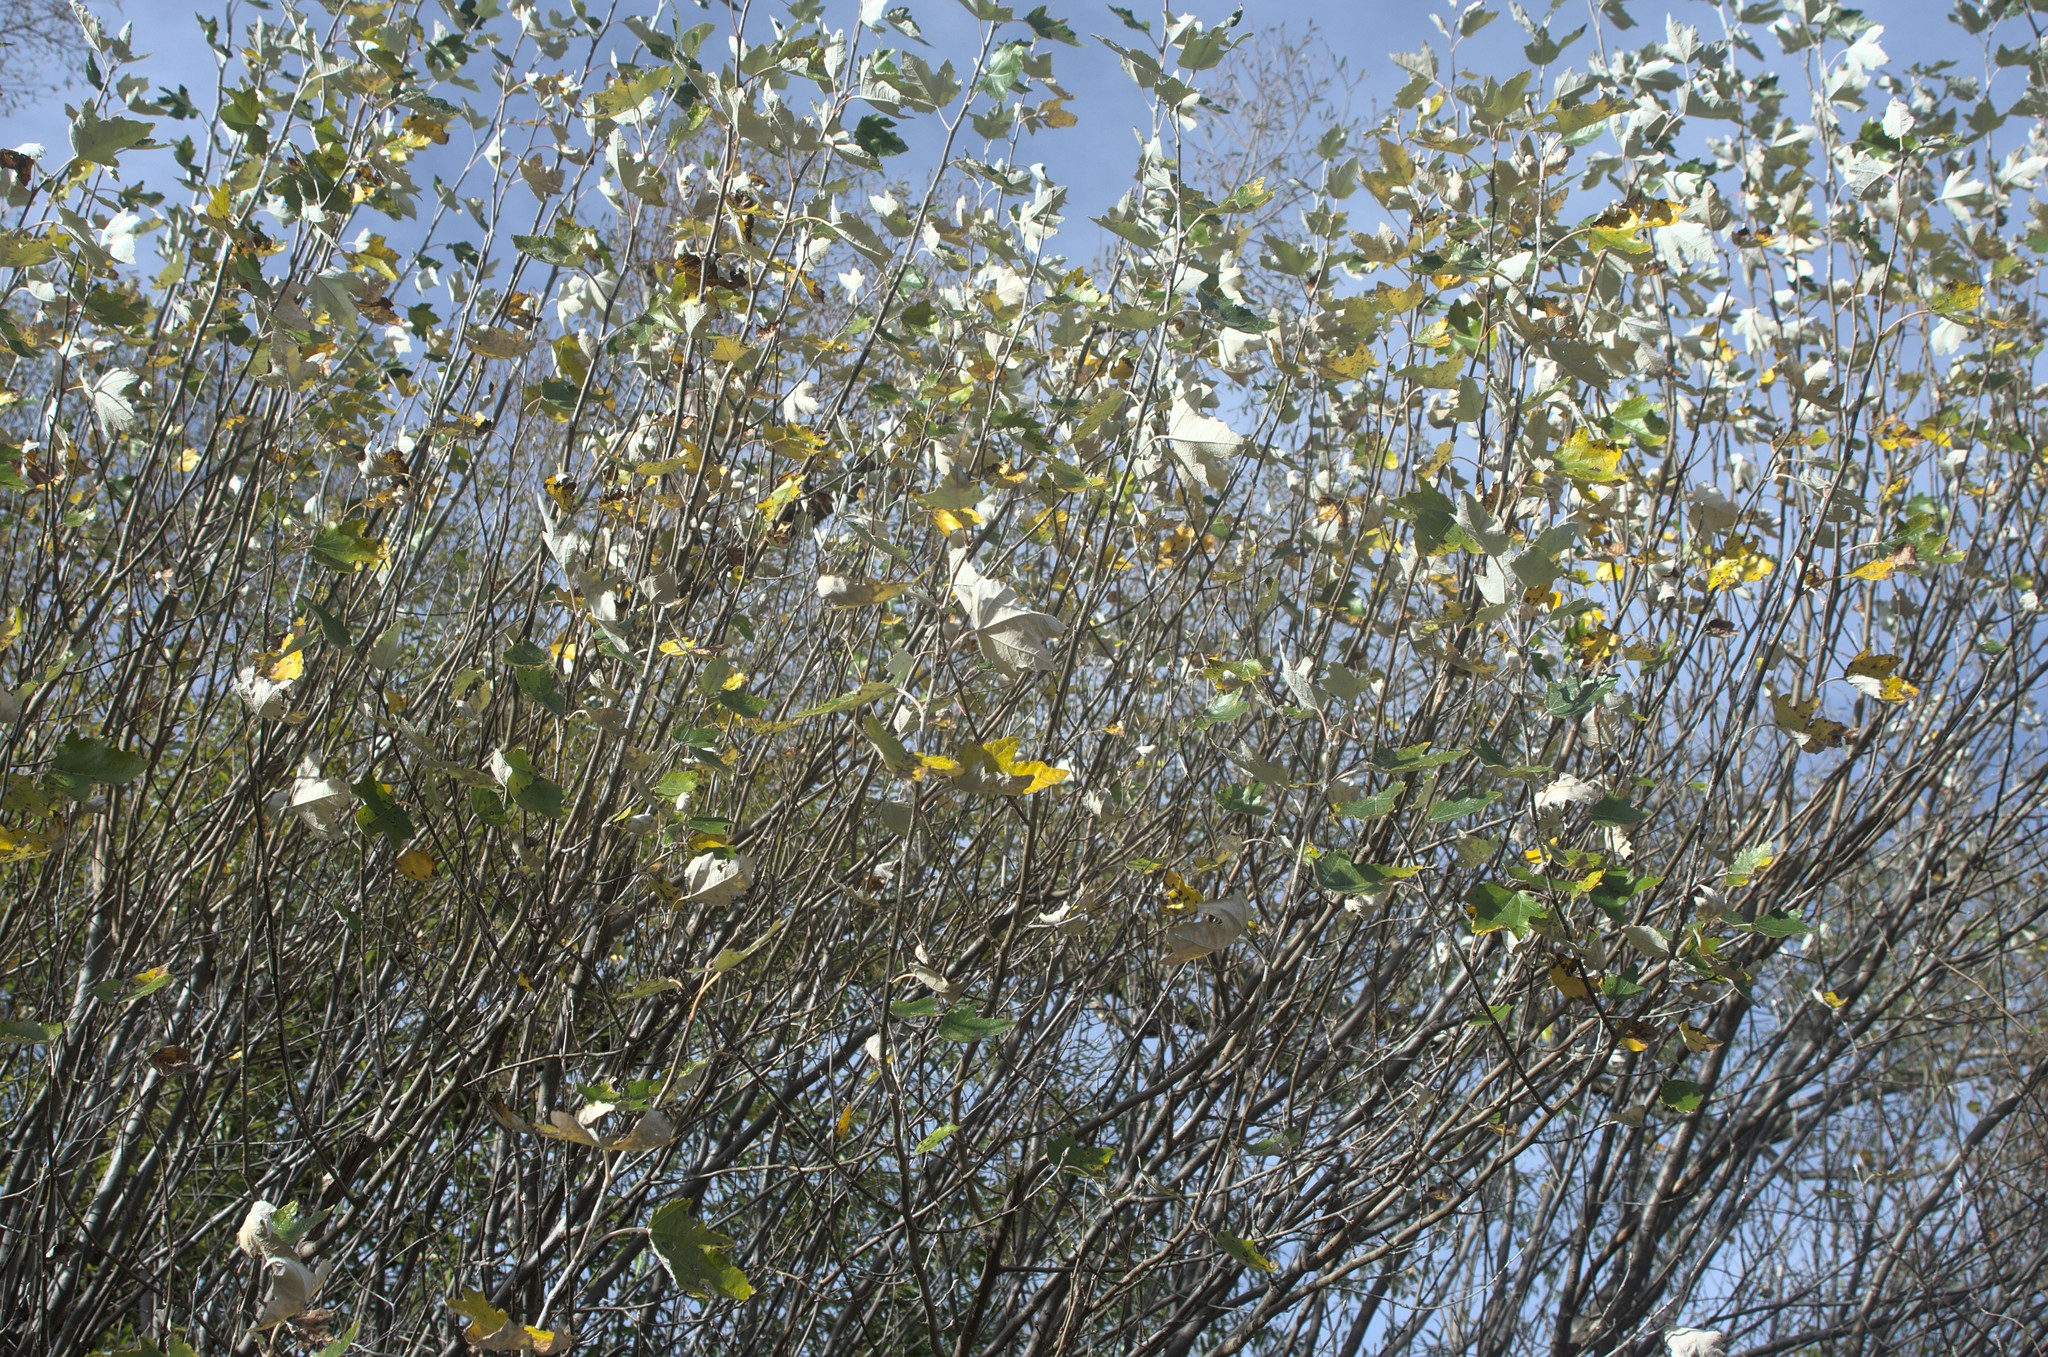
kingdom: Plantae
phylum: Tracheophyta
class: Magnoliopsida
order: Malpighiales
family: Salicaceae
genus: Populus
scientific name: Populus alba
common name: White poplar
